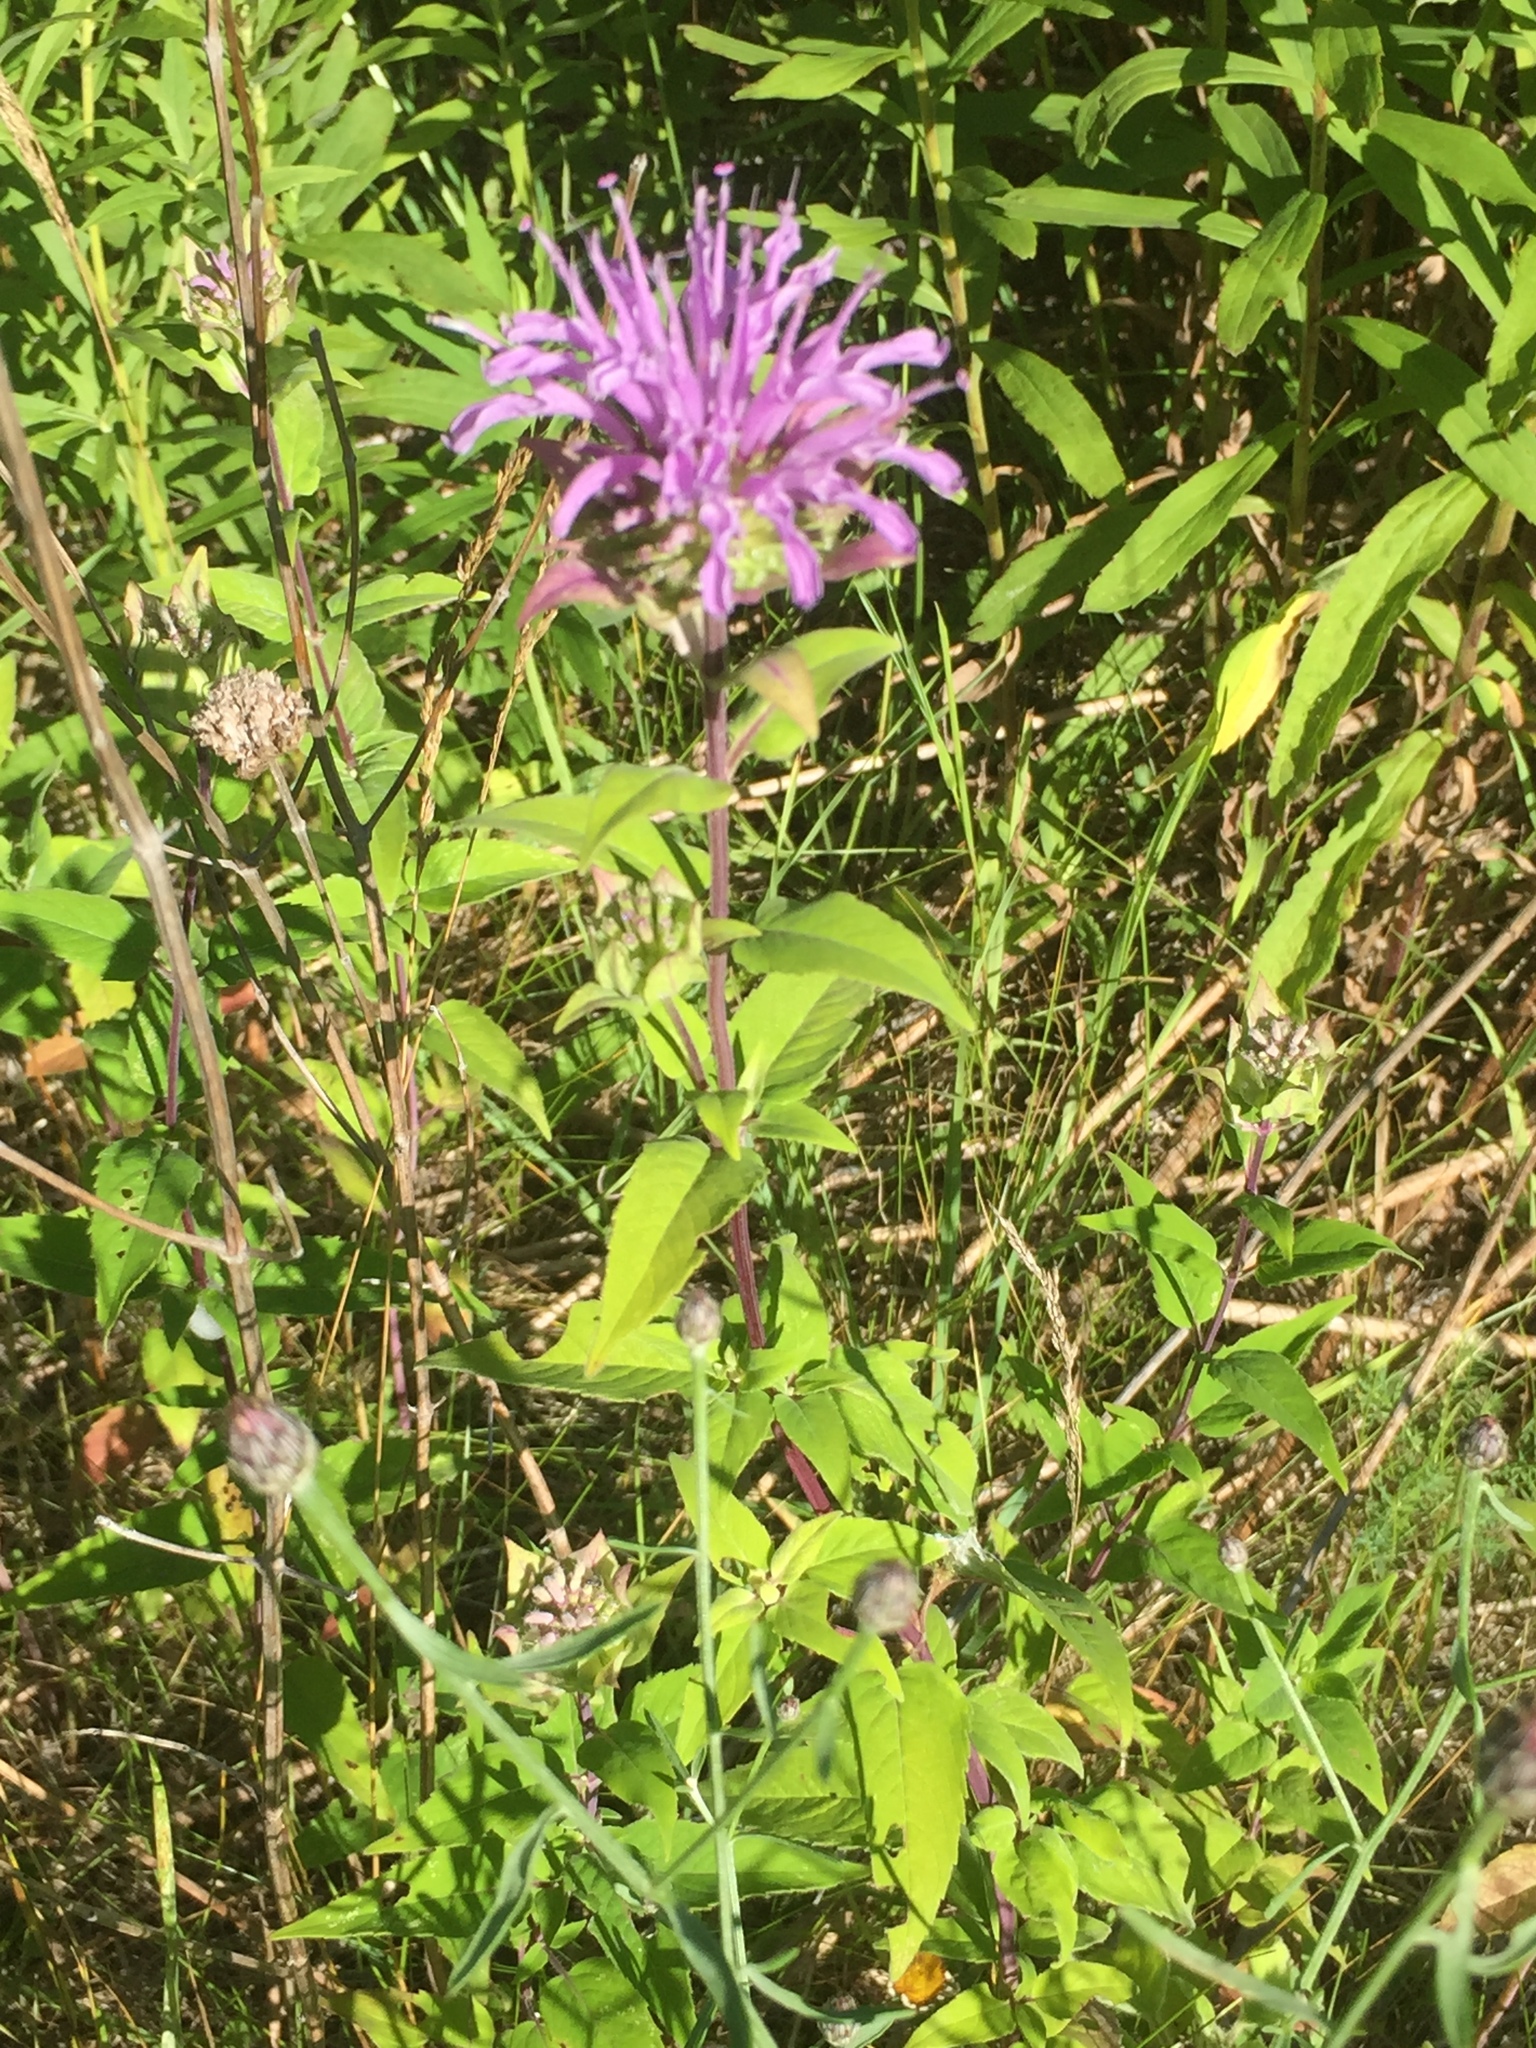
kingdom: Plantae
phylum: Tracheophyta
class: Magnoliopsida
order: Lamiales
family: Lamiaceae
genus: Monarda
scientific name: Monarda fistulosa
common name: Purple beebalm
